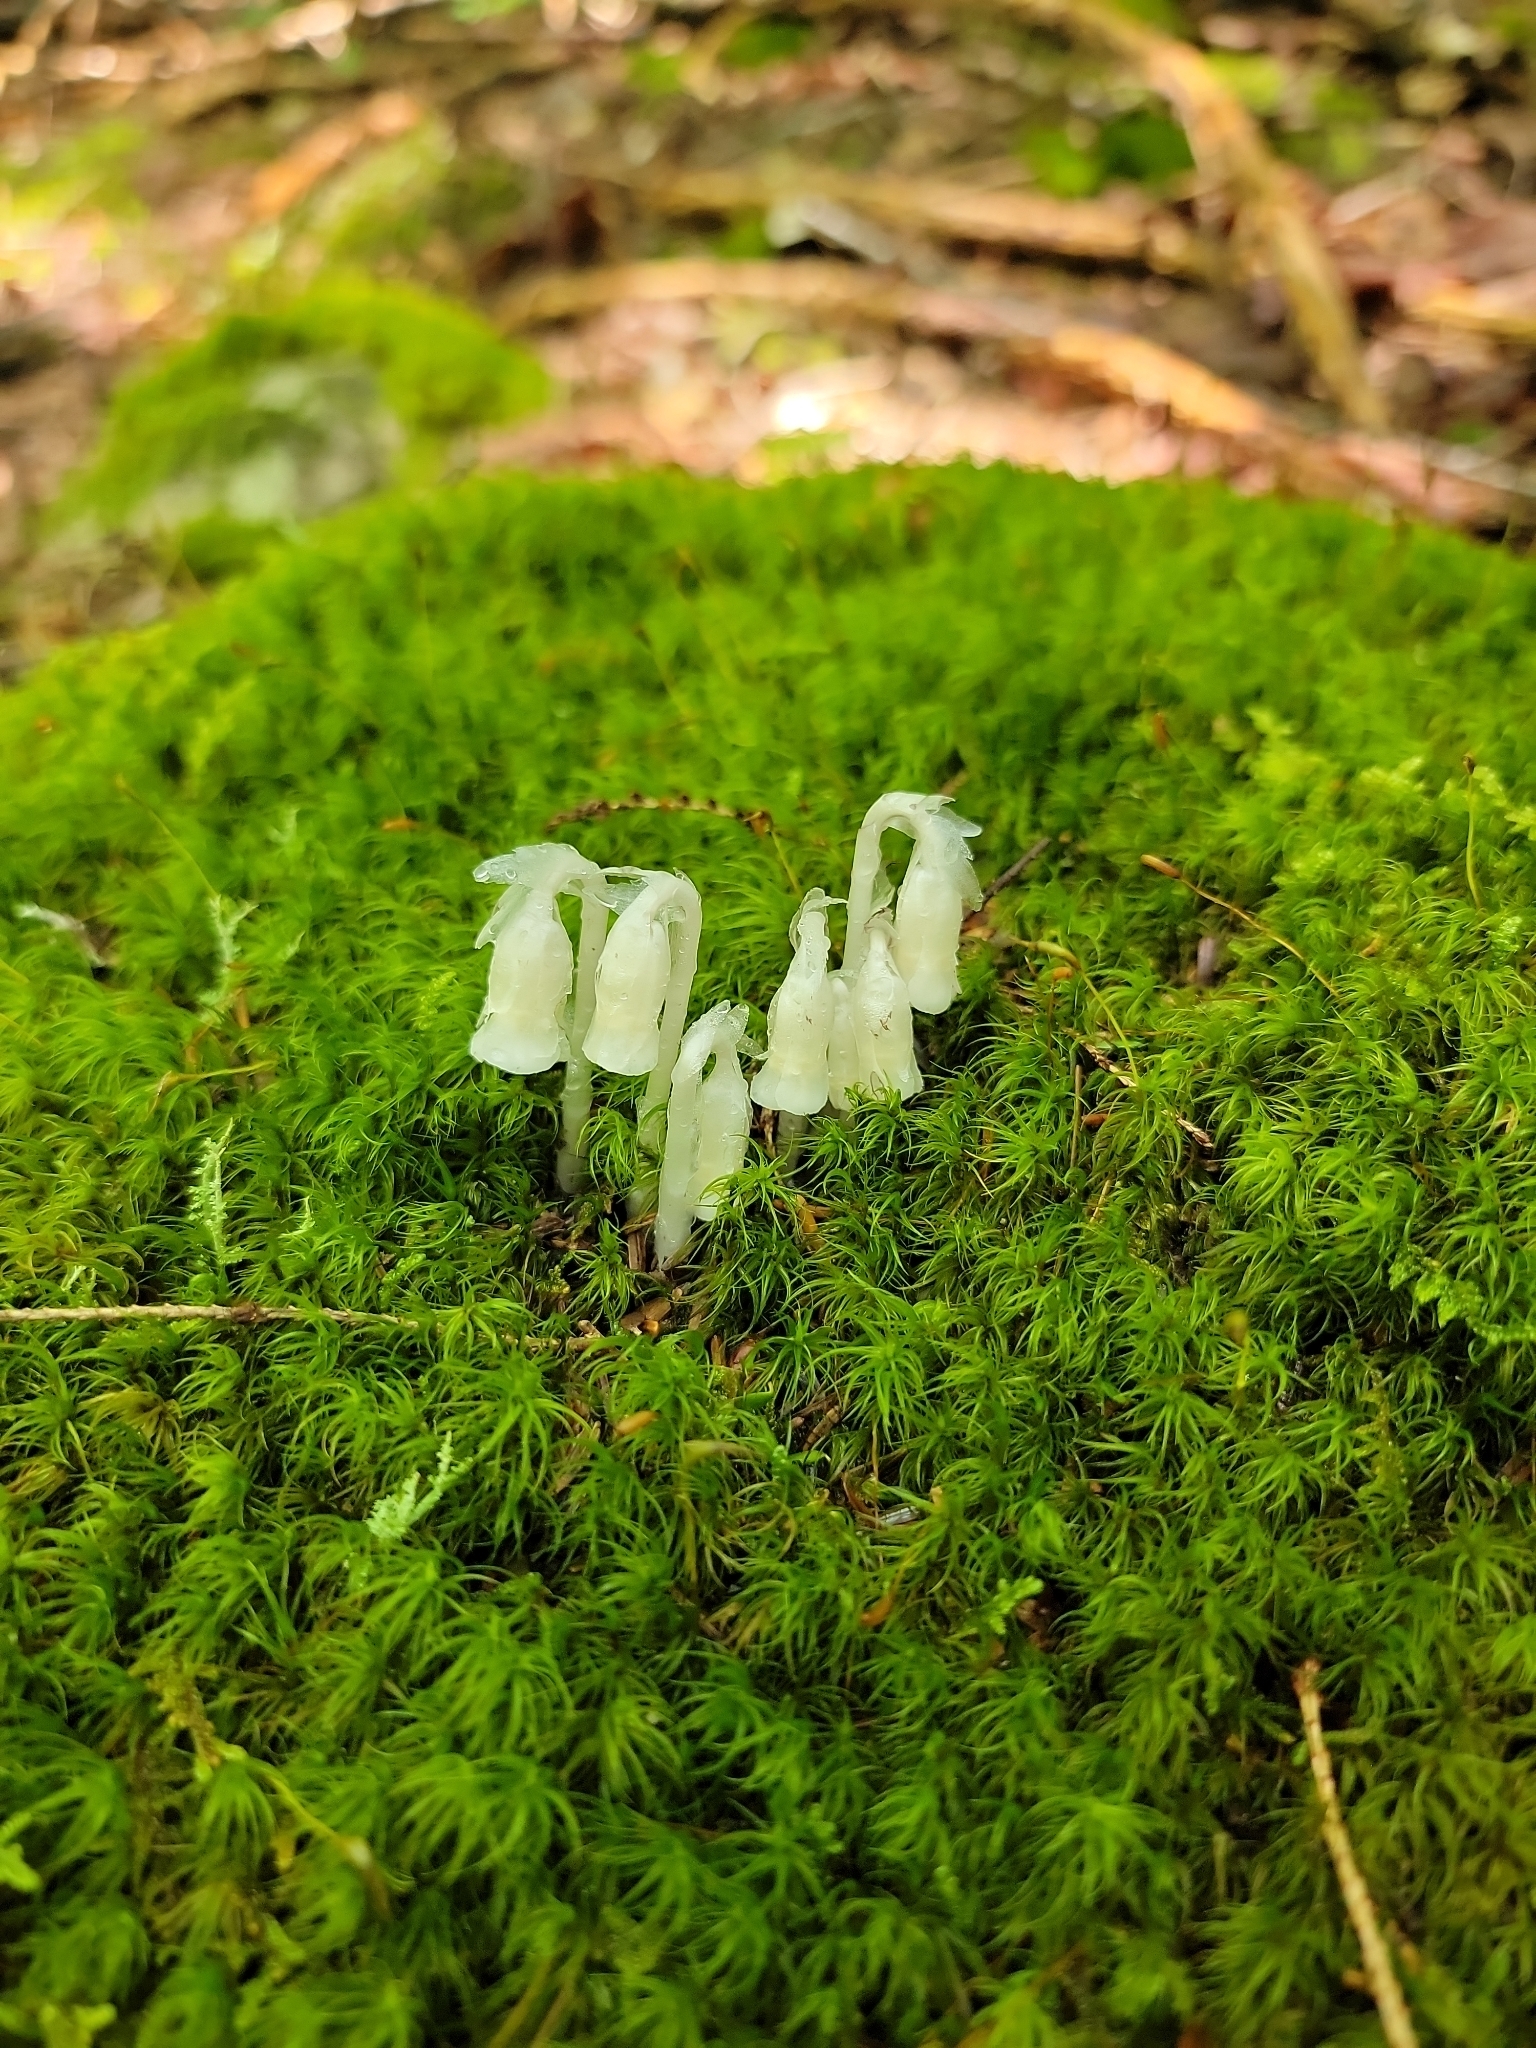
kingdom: Plantae
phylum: Tracheophyta
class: Magnoliopsida
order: Ericales
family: Ericaceae
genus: Monotropa
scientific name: Monotropa uniflora
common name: Convulsion root
